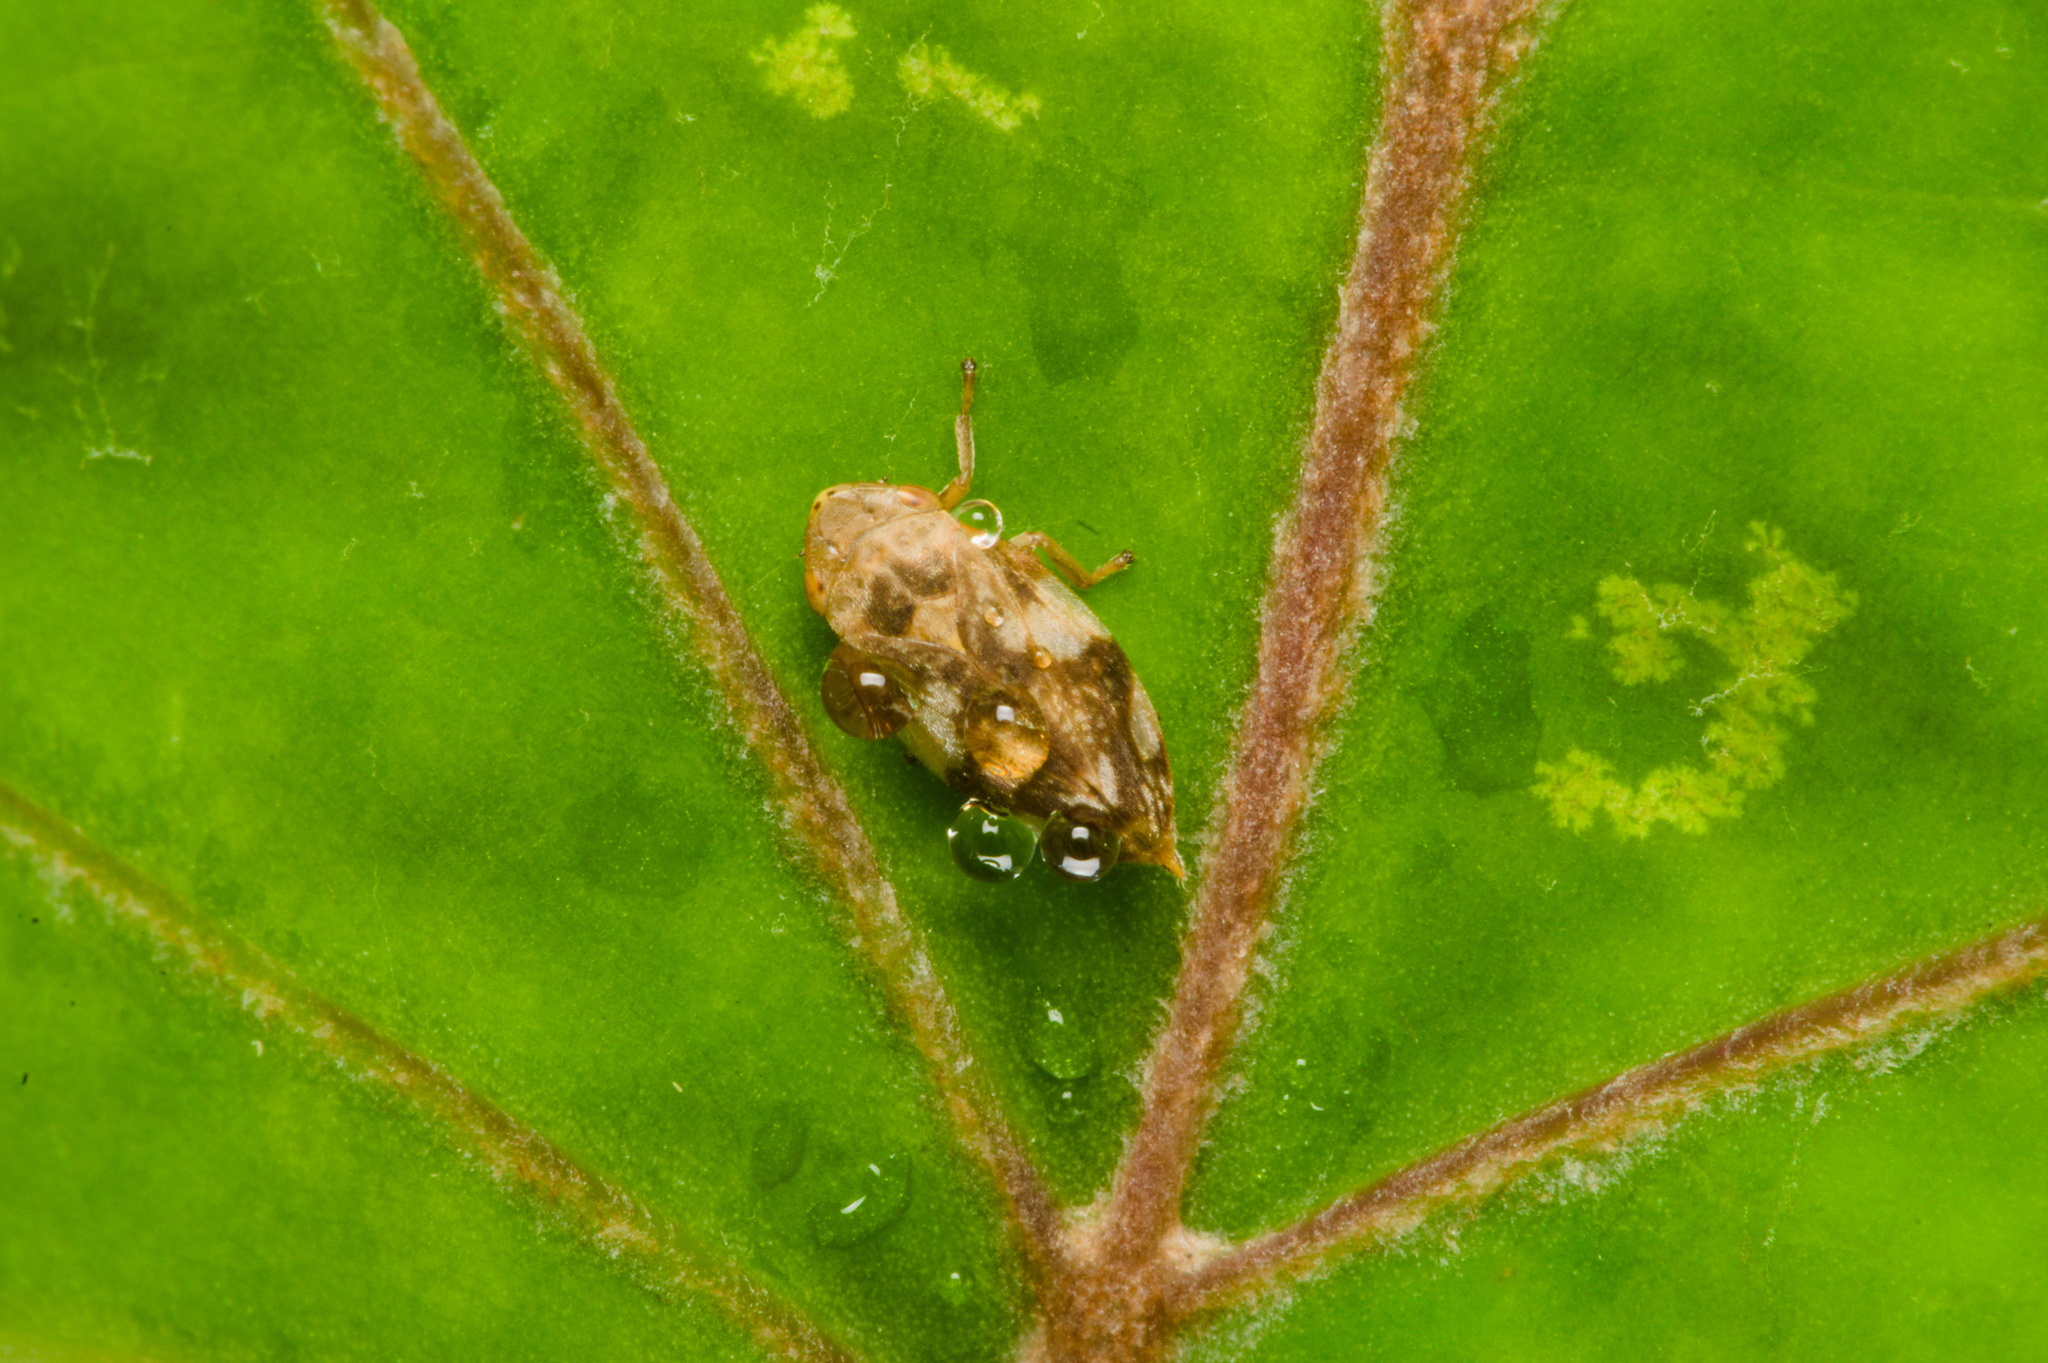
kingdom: Animalia
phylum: Arthropoda
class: Insecta
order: Hemiptera
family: Aphrophoridae
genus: Philaenus
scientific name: Philaenus spumarius
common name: Meadow spittlebug
